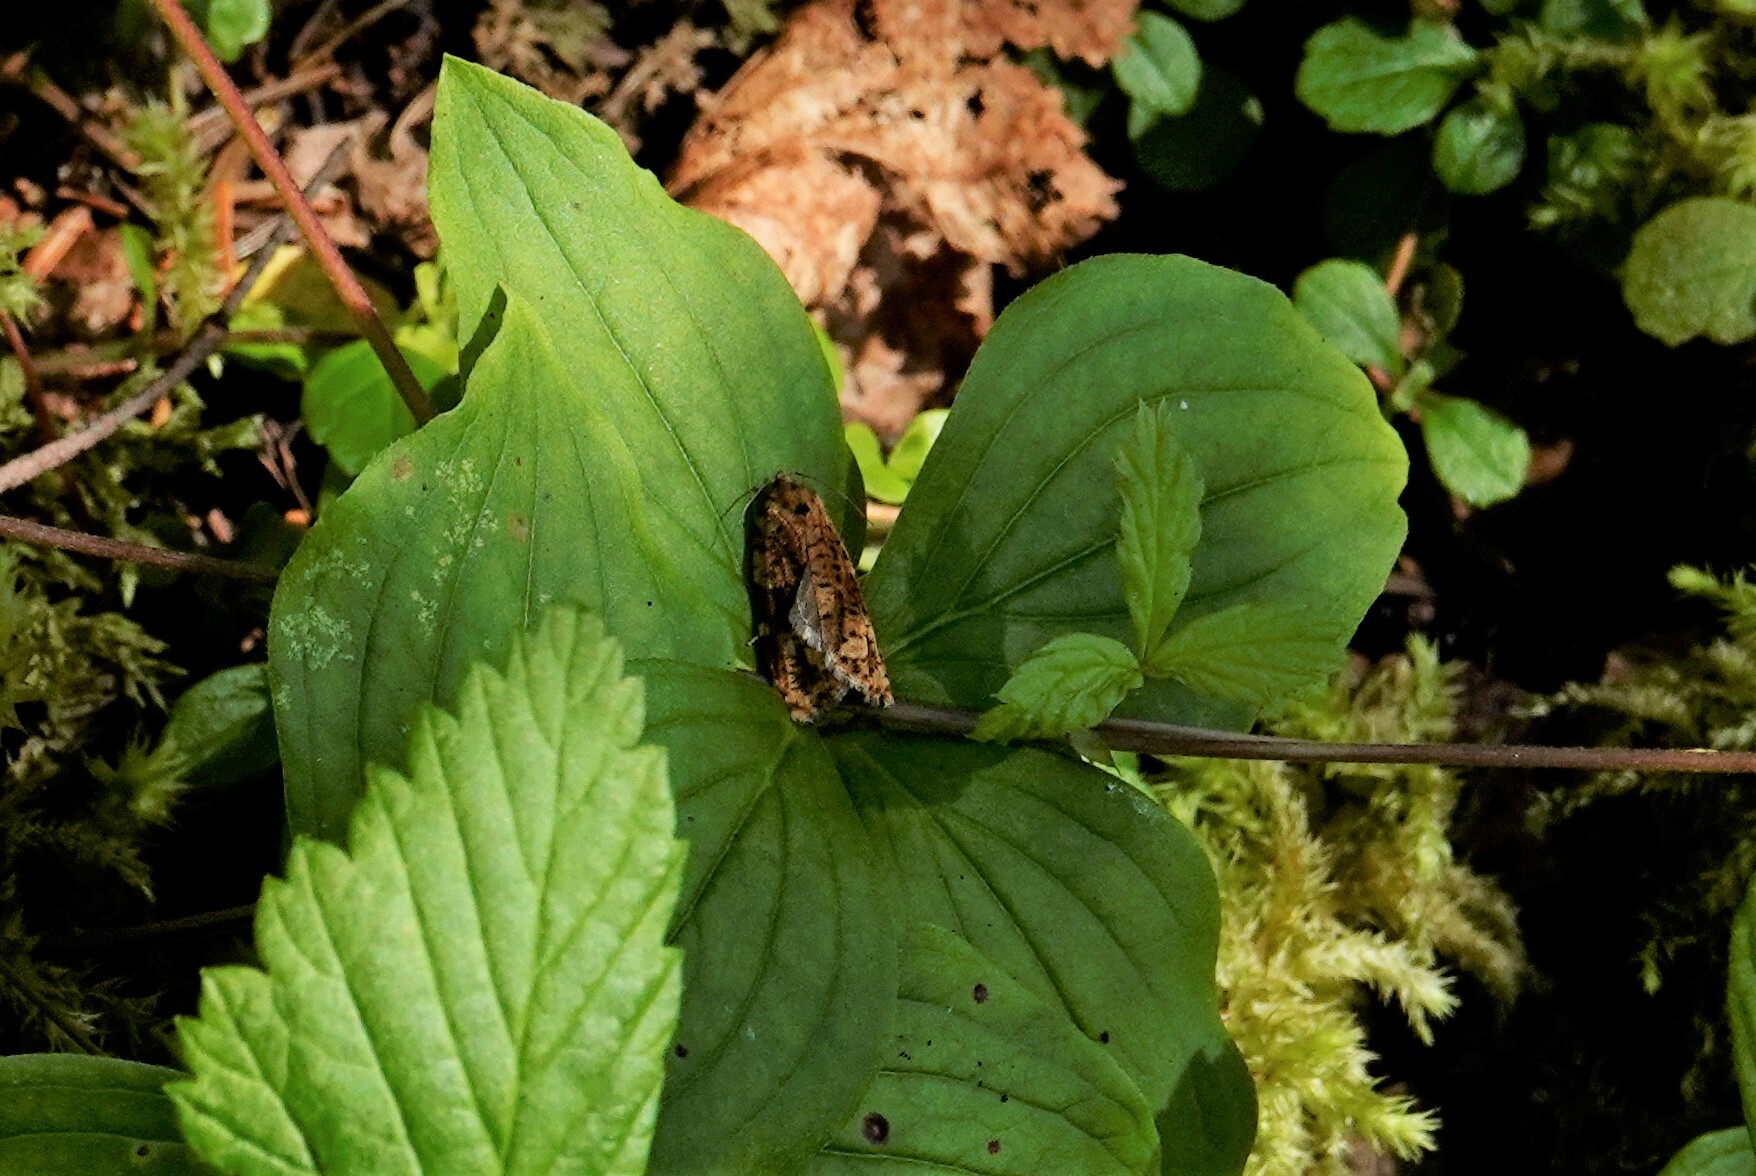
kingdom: Animalia
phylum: Arthropoda
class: Insecta
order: Lepidoptera
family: Tortricidae
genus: Choristoneura
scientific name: Choristoneura fumiferana
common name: Spruce budworm
